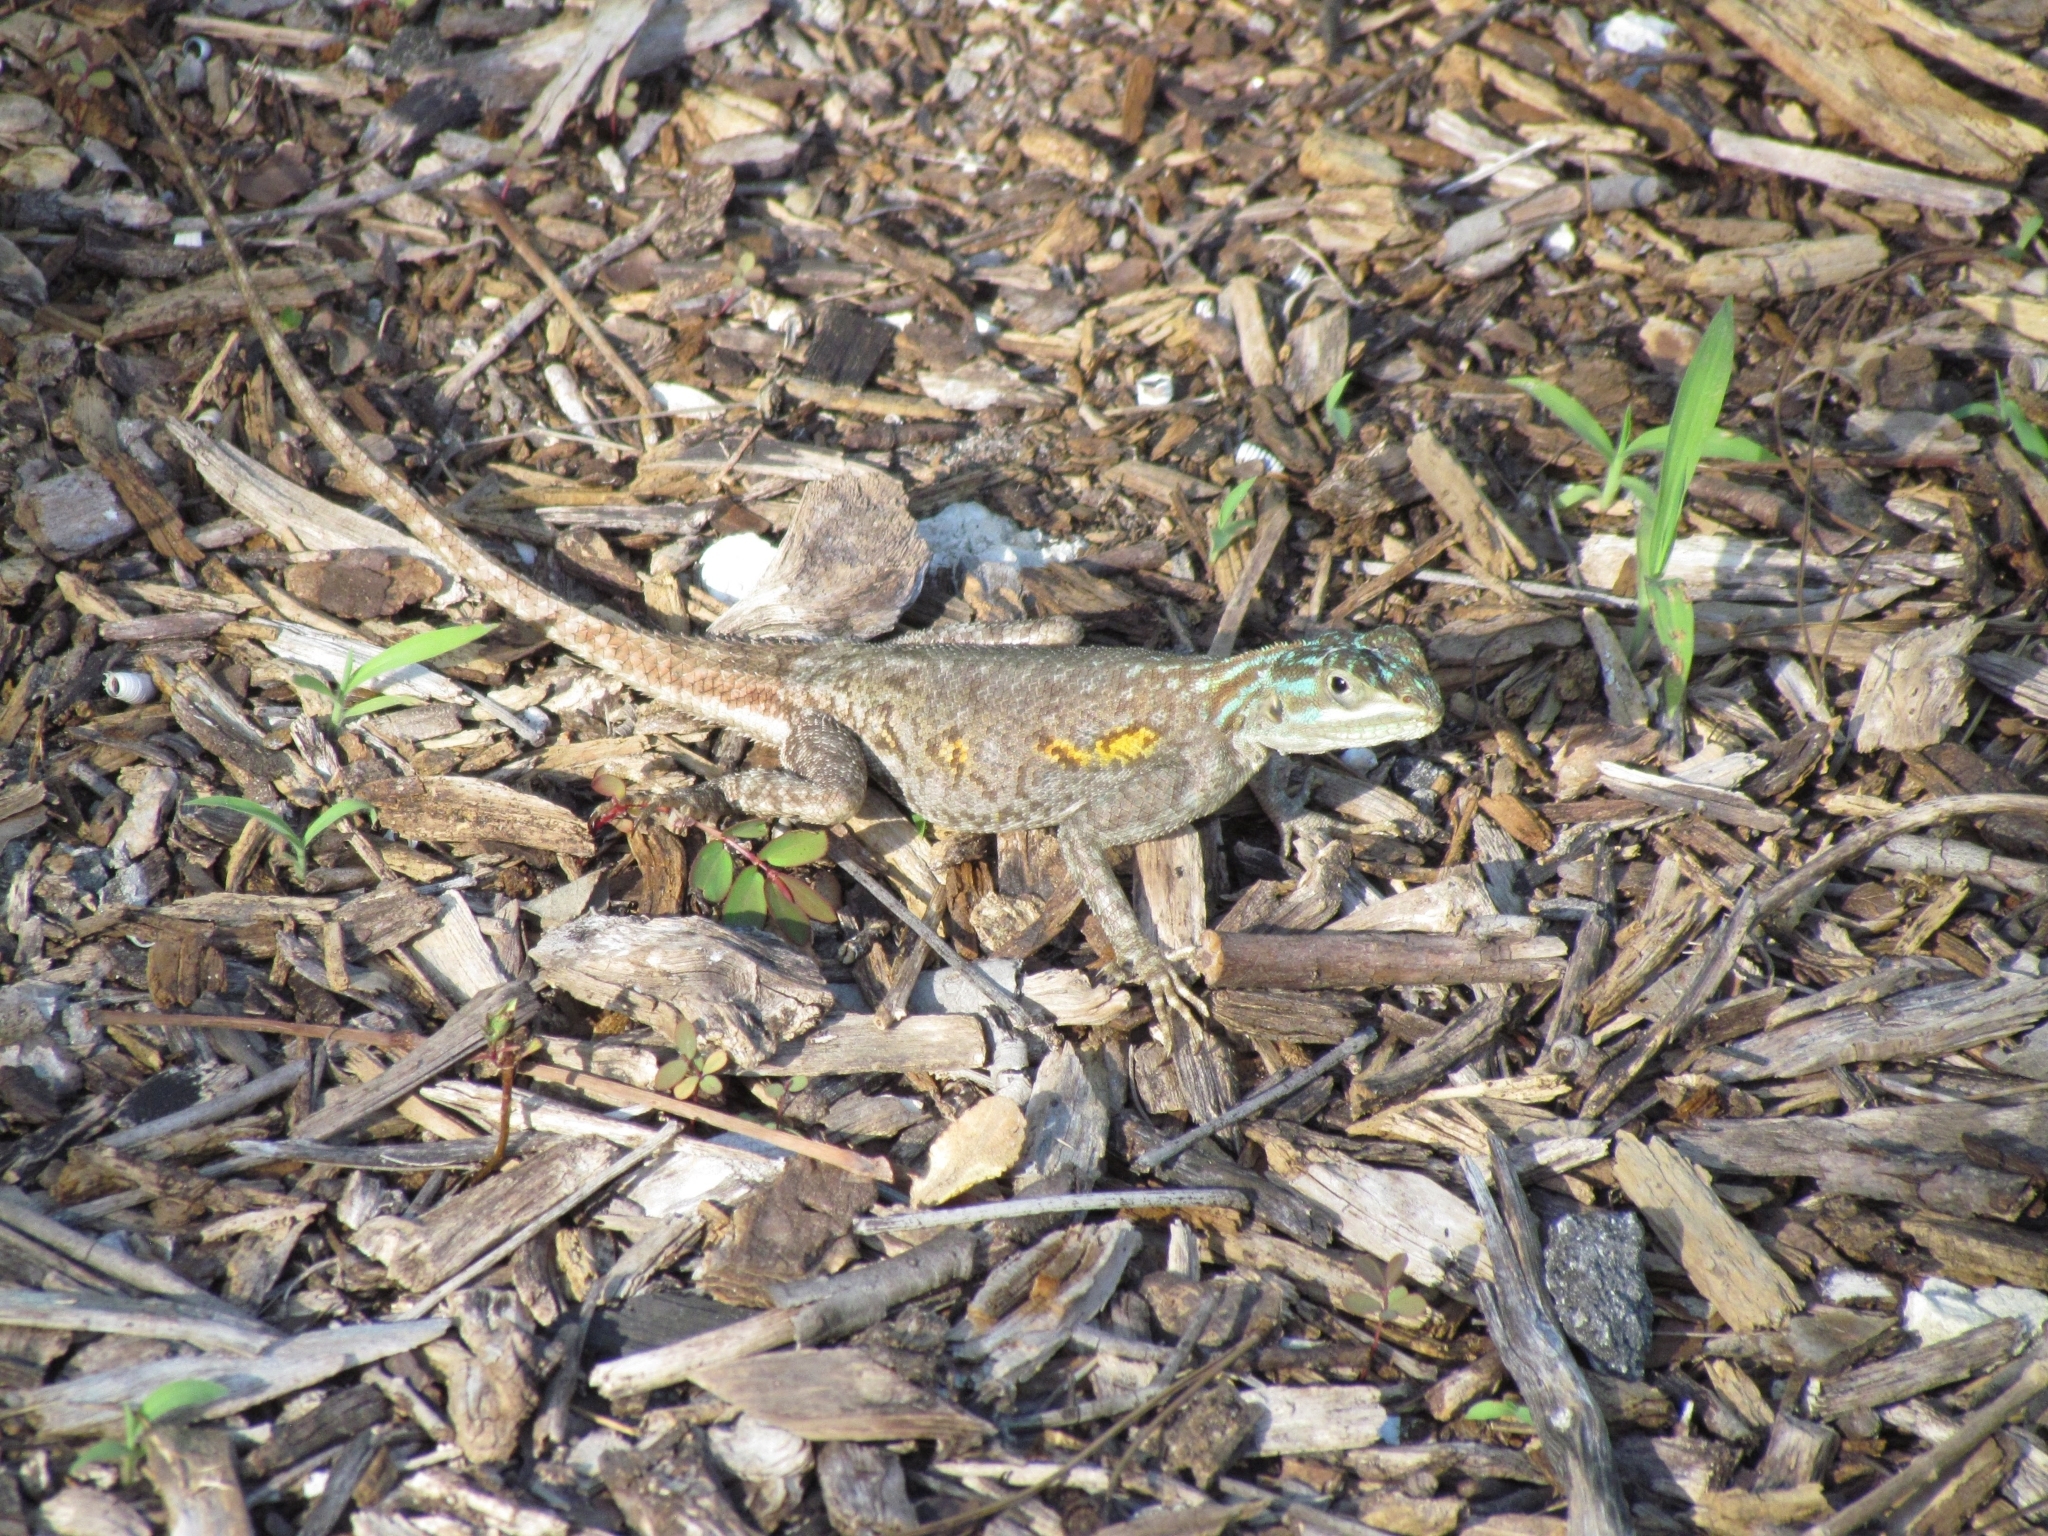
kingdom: Animalia
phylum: Chordata
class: Squamata
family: Agamidae
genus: Agama
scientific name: Agama picticauda
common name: Red-headed agama
